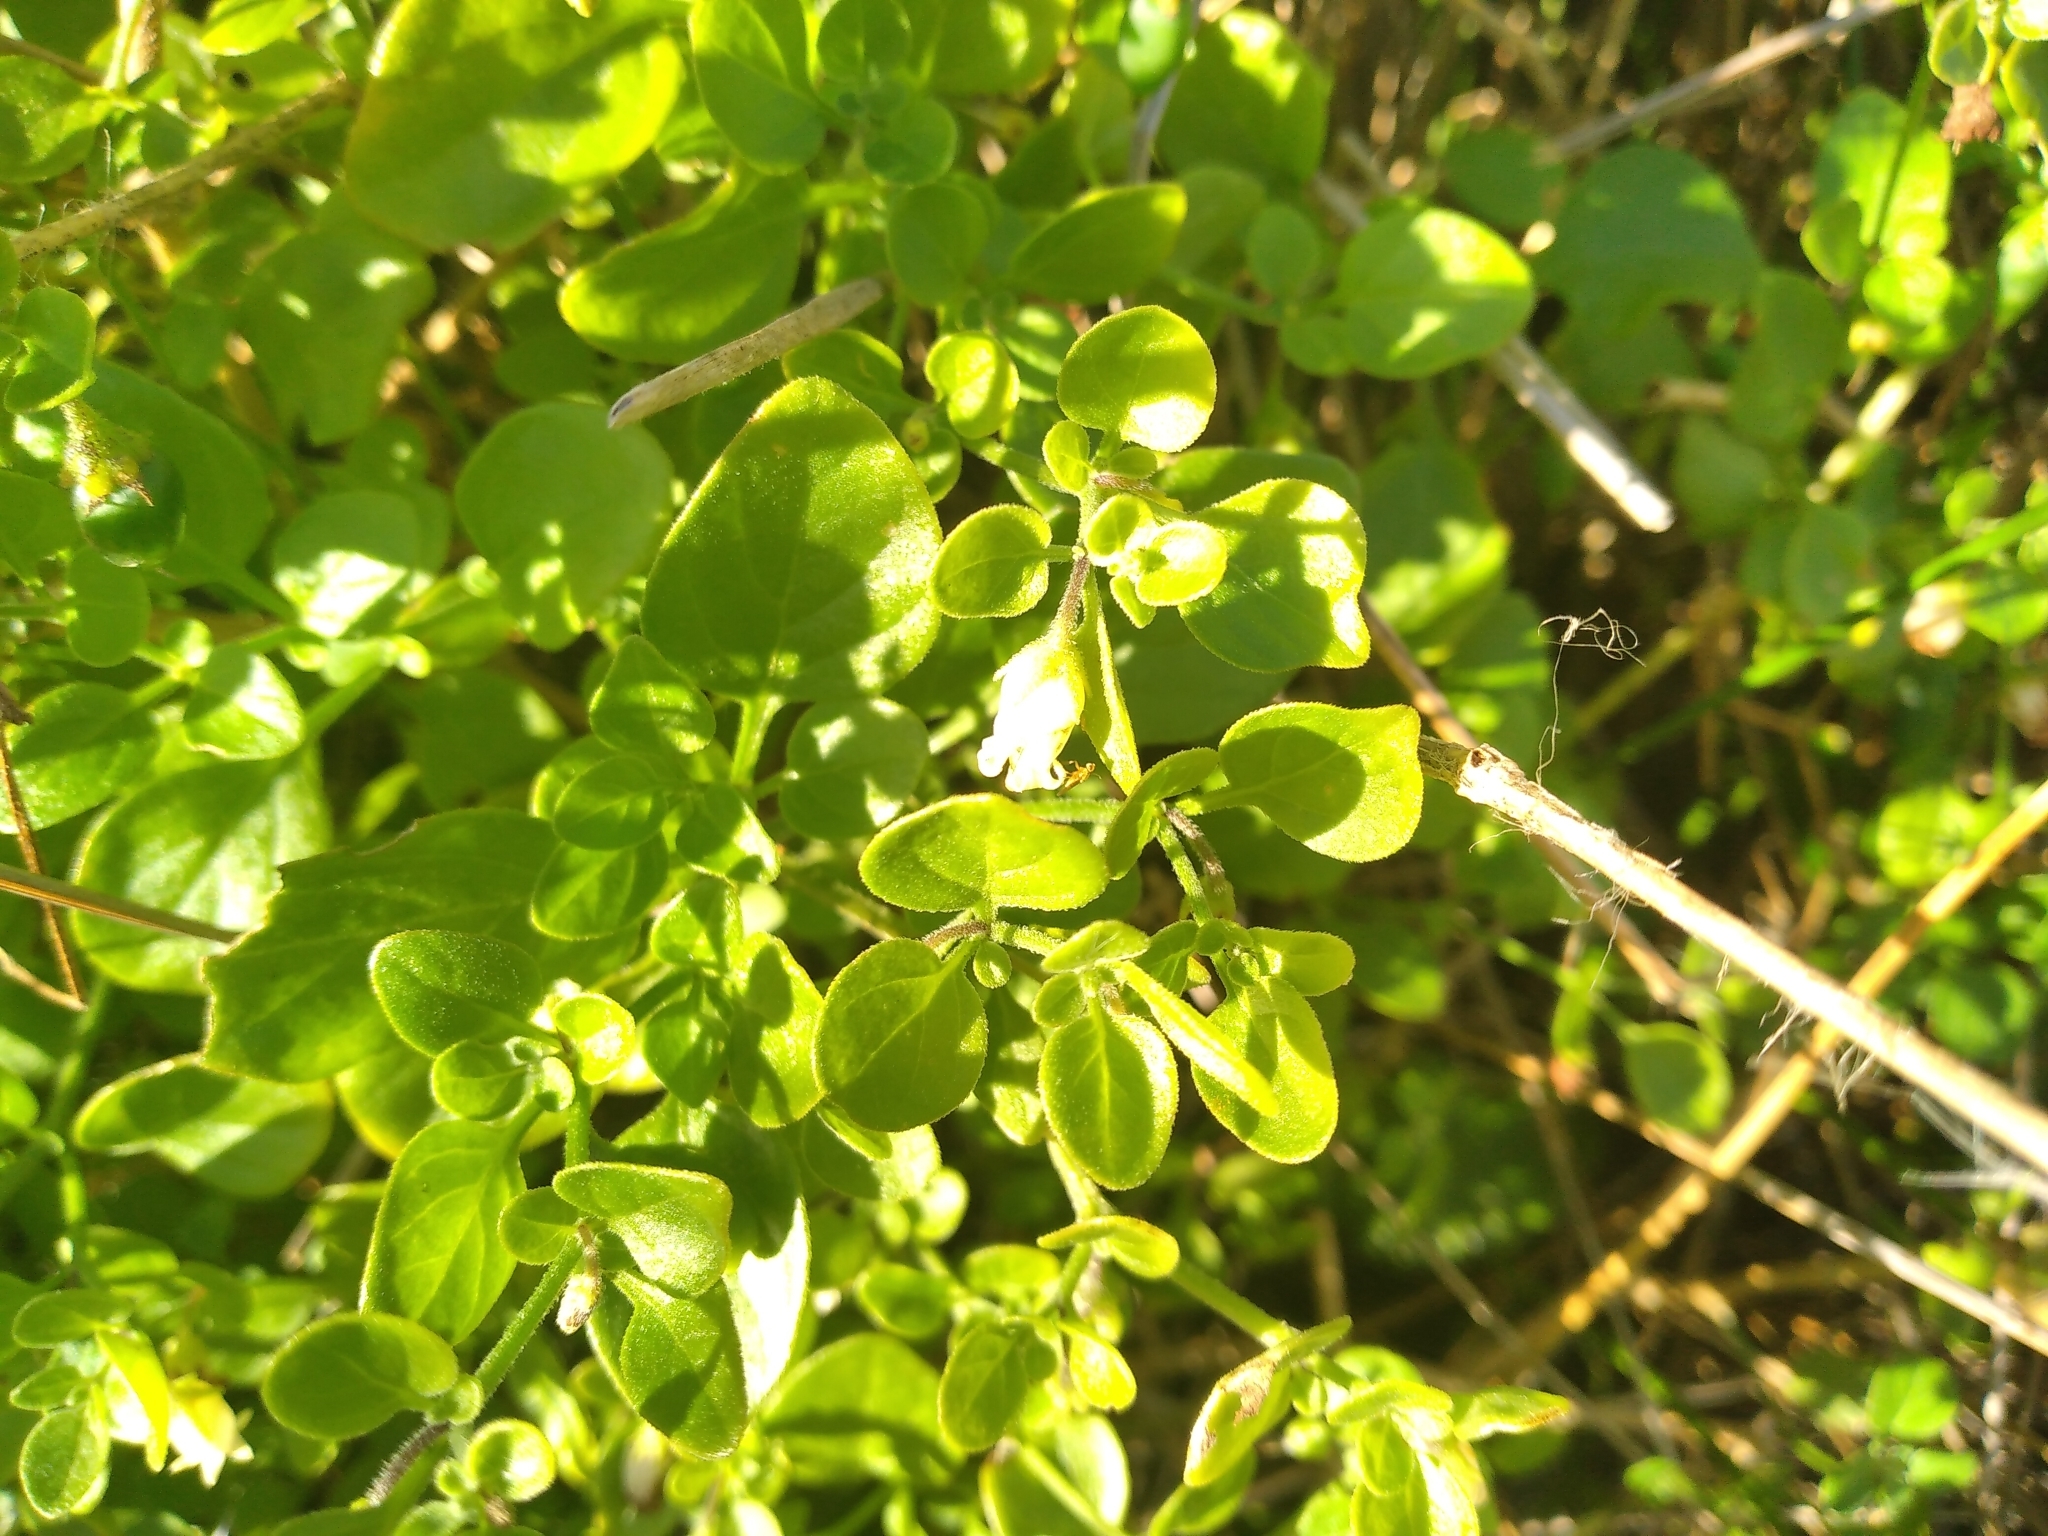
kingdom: Plantae
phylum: Tracheophyta
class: Magnoliopsida
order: Solanales
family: Solanaceae
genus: Salpichroa
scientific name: Salpichroa origanifolia
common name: Lily-of-the-valley-vine
